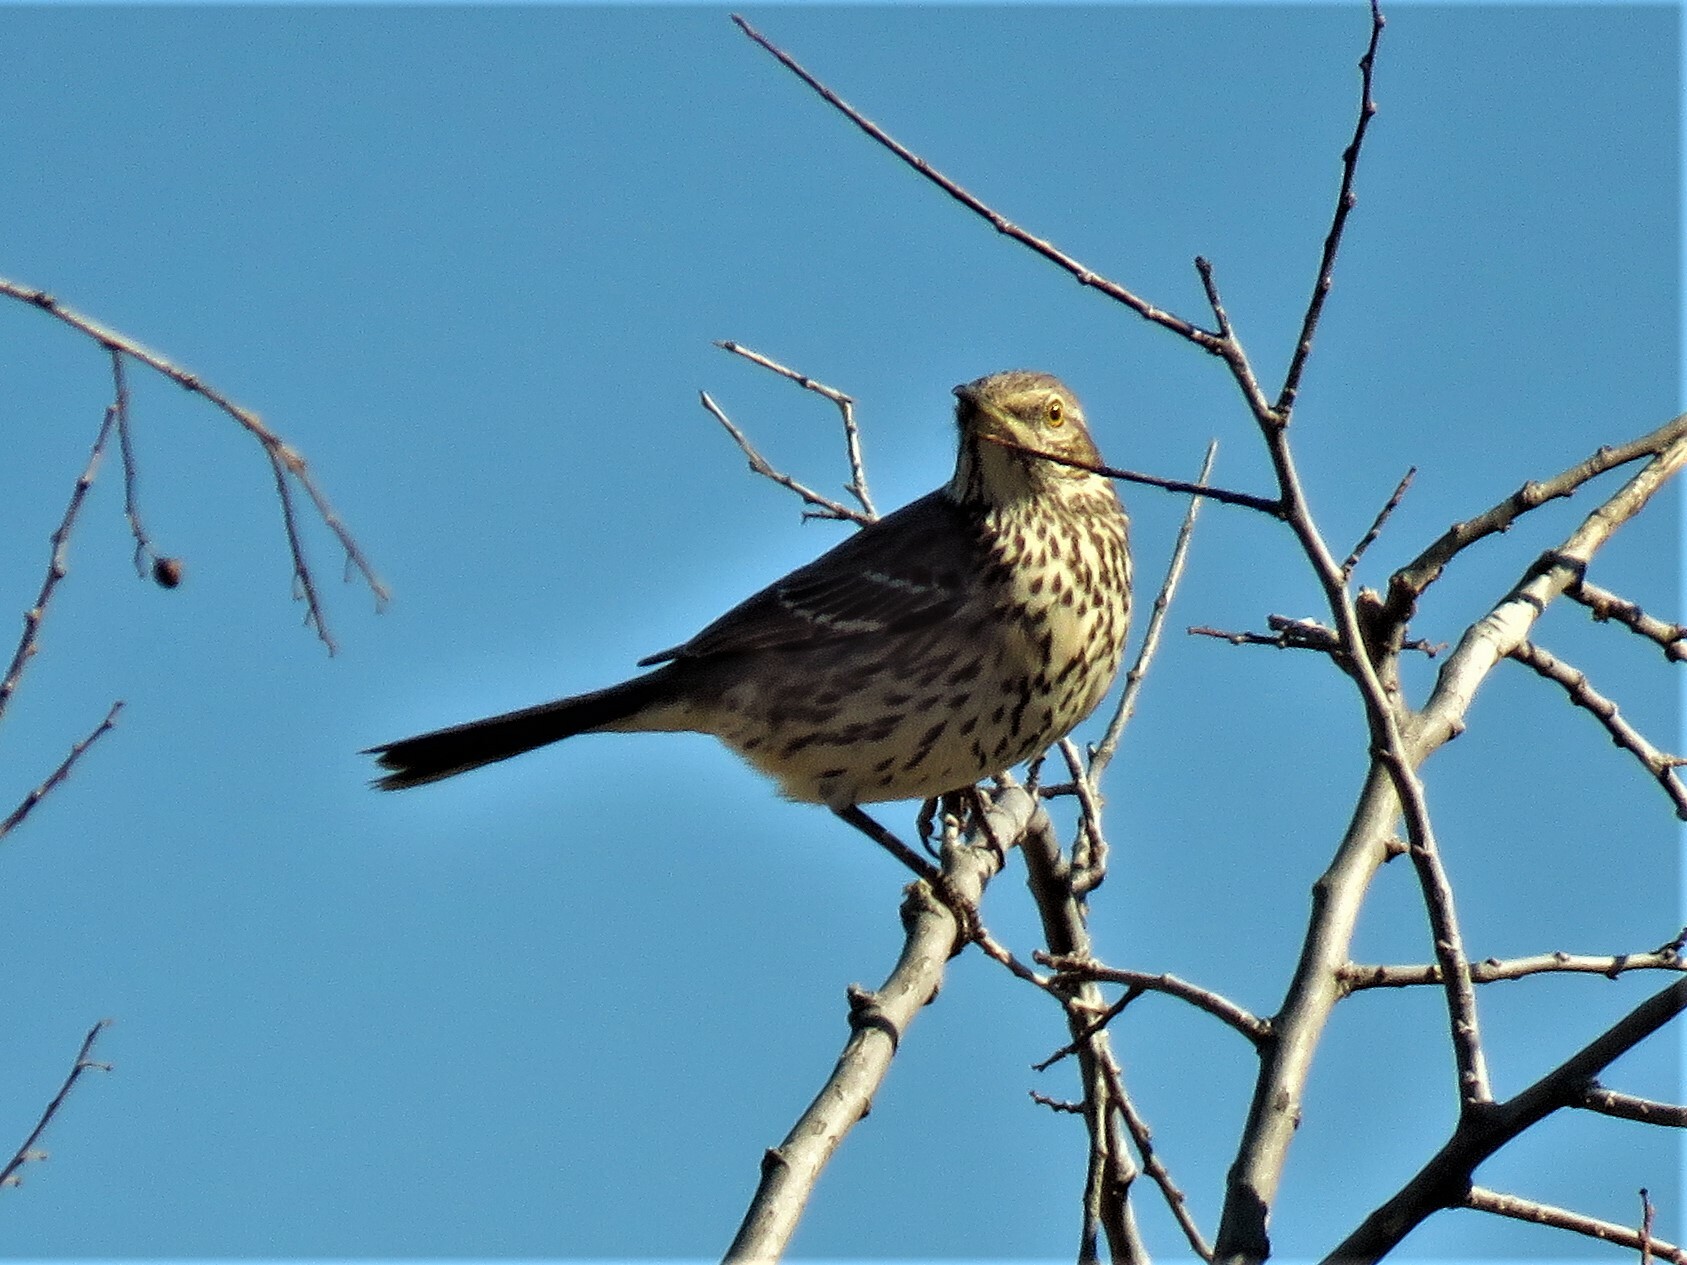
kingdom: Animalia
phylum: Chordata
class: Aves
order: Passeriformes
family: Mimidae
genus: Oreoscoptes
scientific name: Oreoscoptes montanus
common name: Sage thrasher
